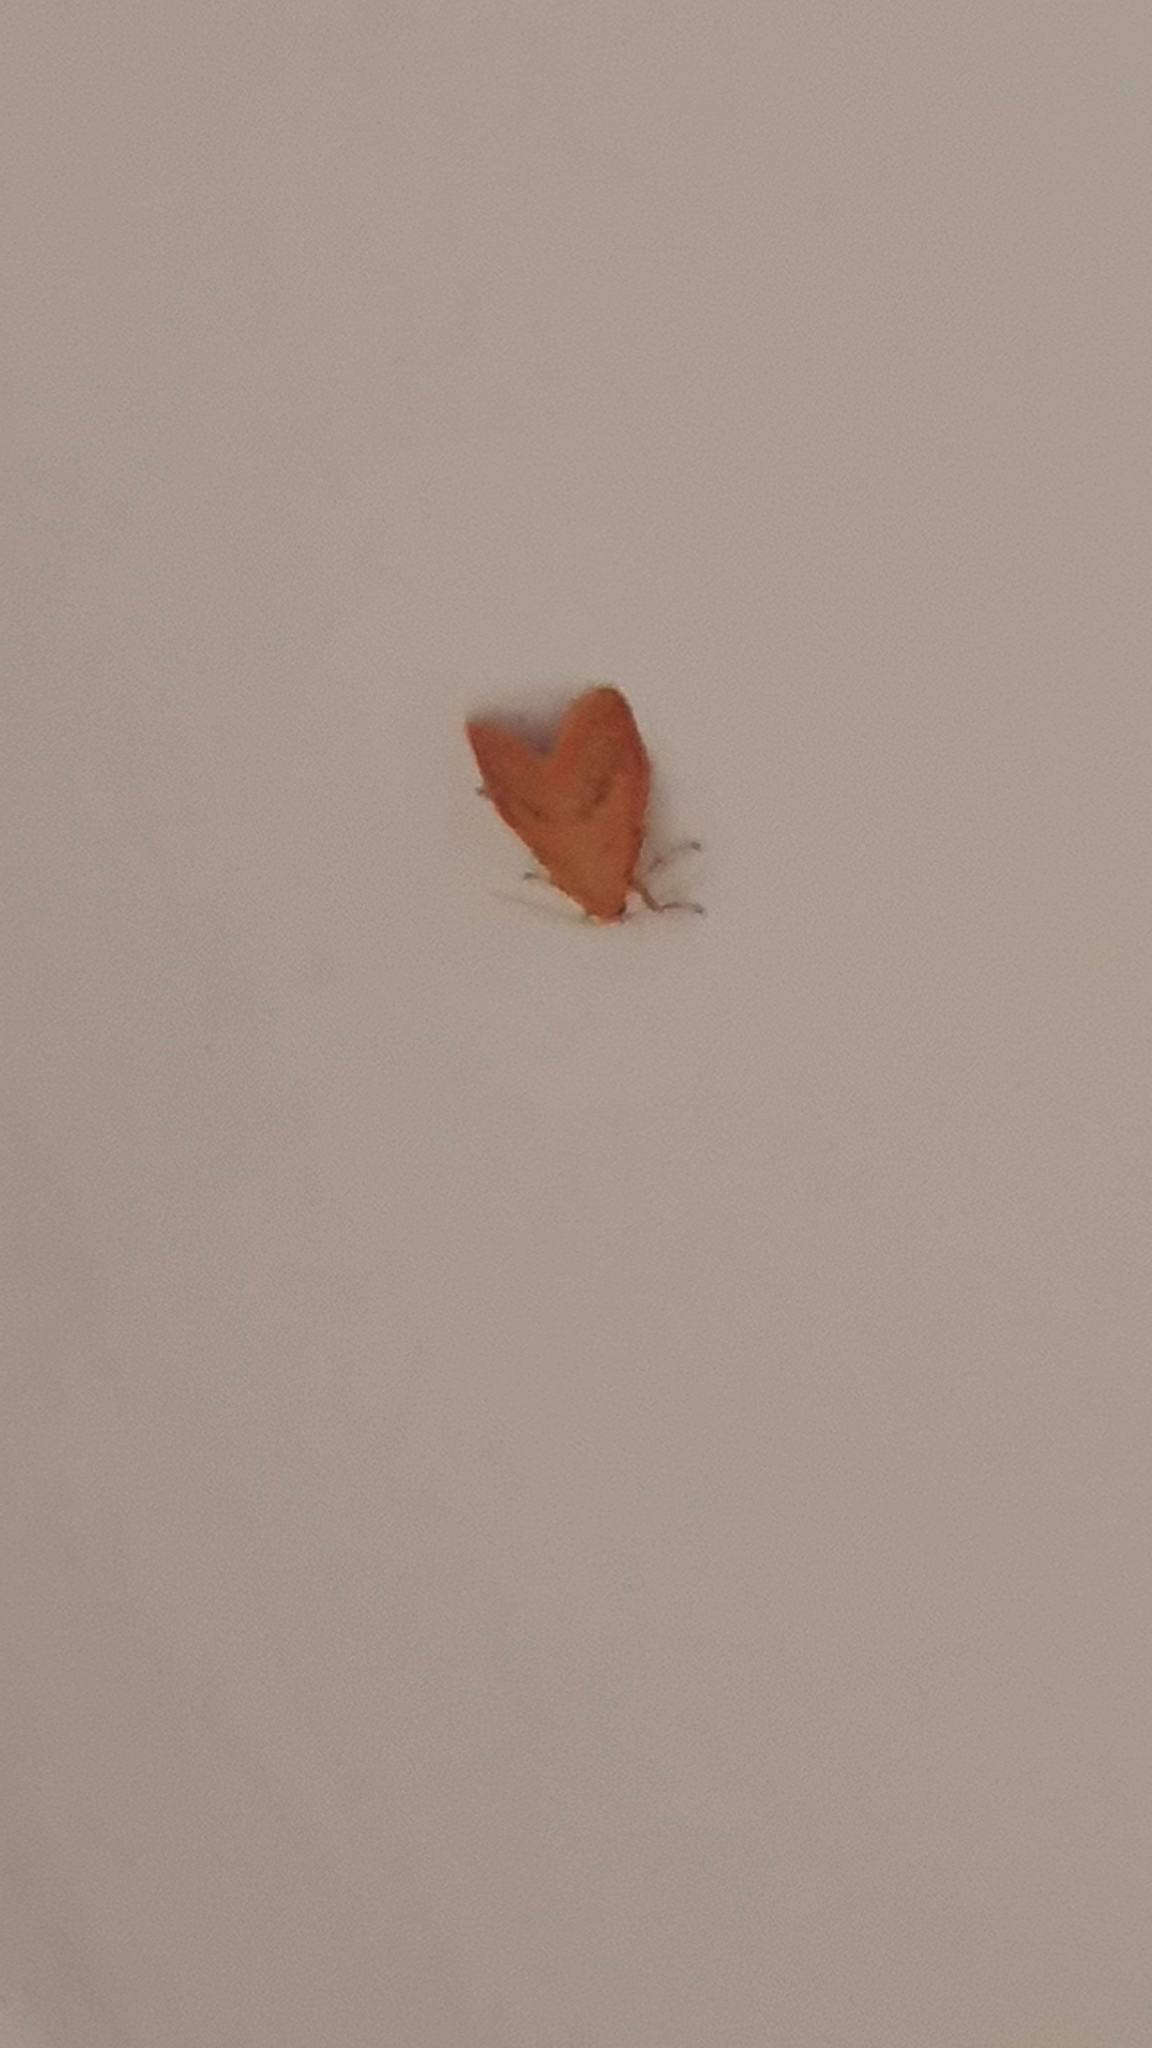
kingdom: Animalia
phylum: Arthropoda
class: Insecta
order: Lepidoptera
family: Erebidae
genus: Miltochrista
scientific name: Miltochrista miniata
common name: Rosy footman
